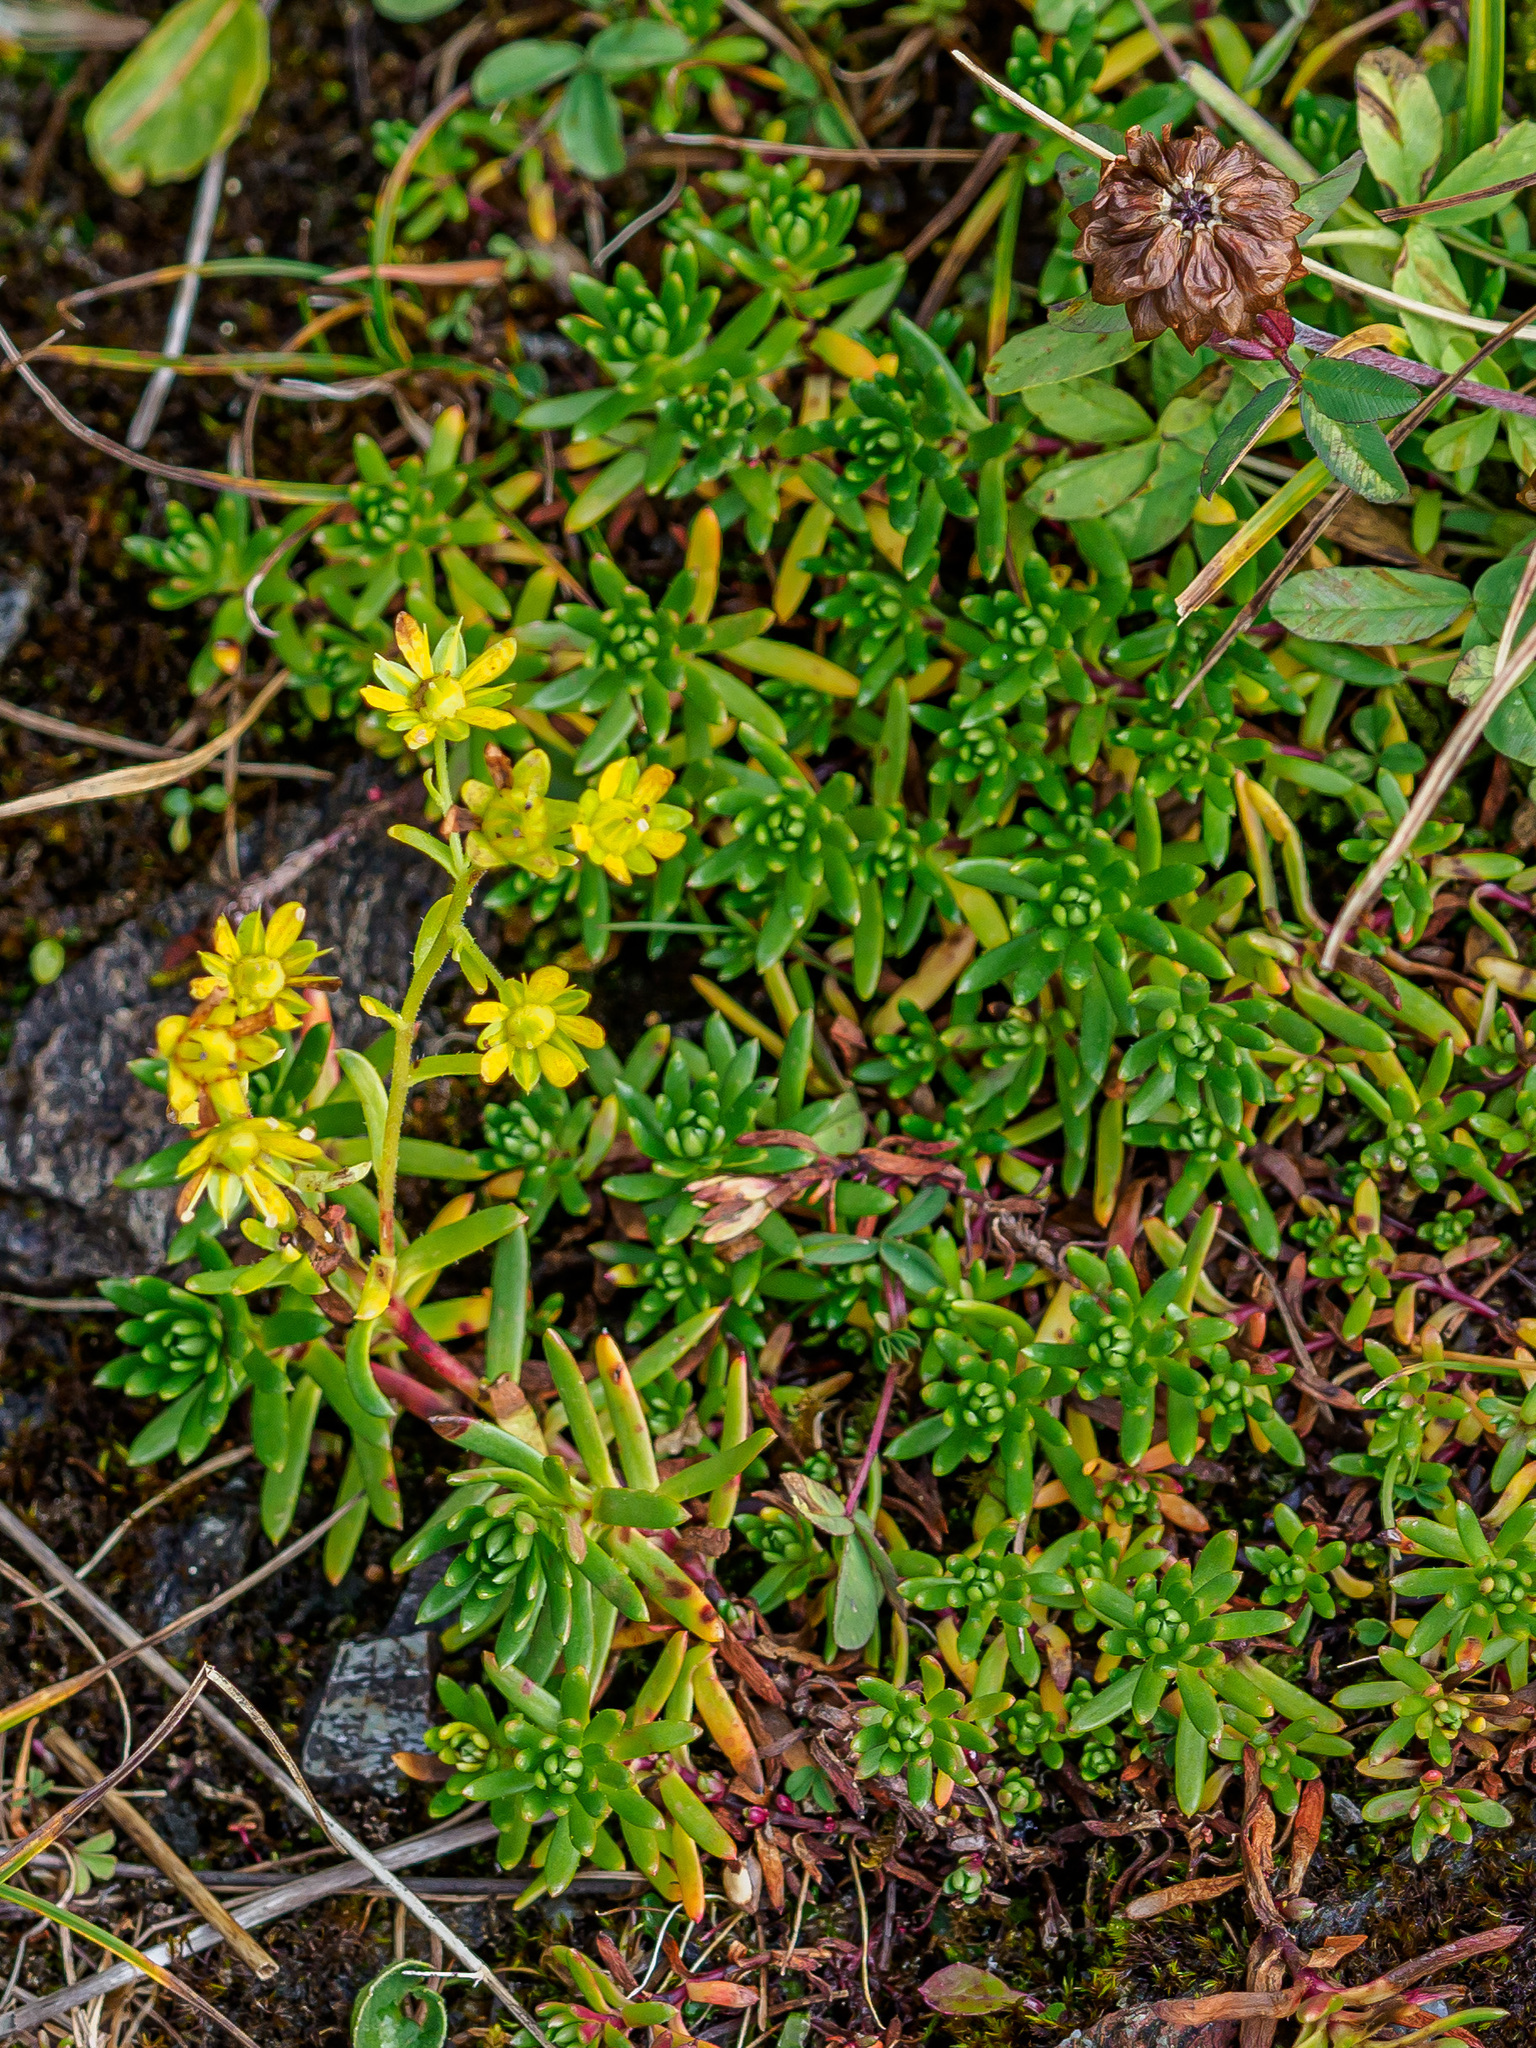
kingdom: Plantae
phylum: Tracheophyta
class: Magnoliopsida
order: Saxifragales
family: Saxifragaceae
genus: Saxifraga
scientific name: Saxifraga aizoides
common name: Yellow mountain saxifrage
